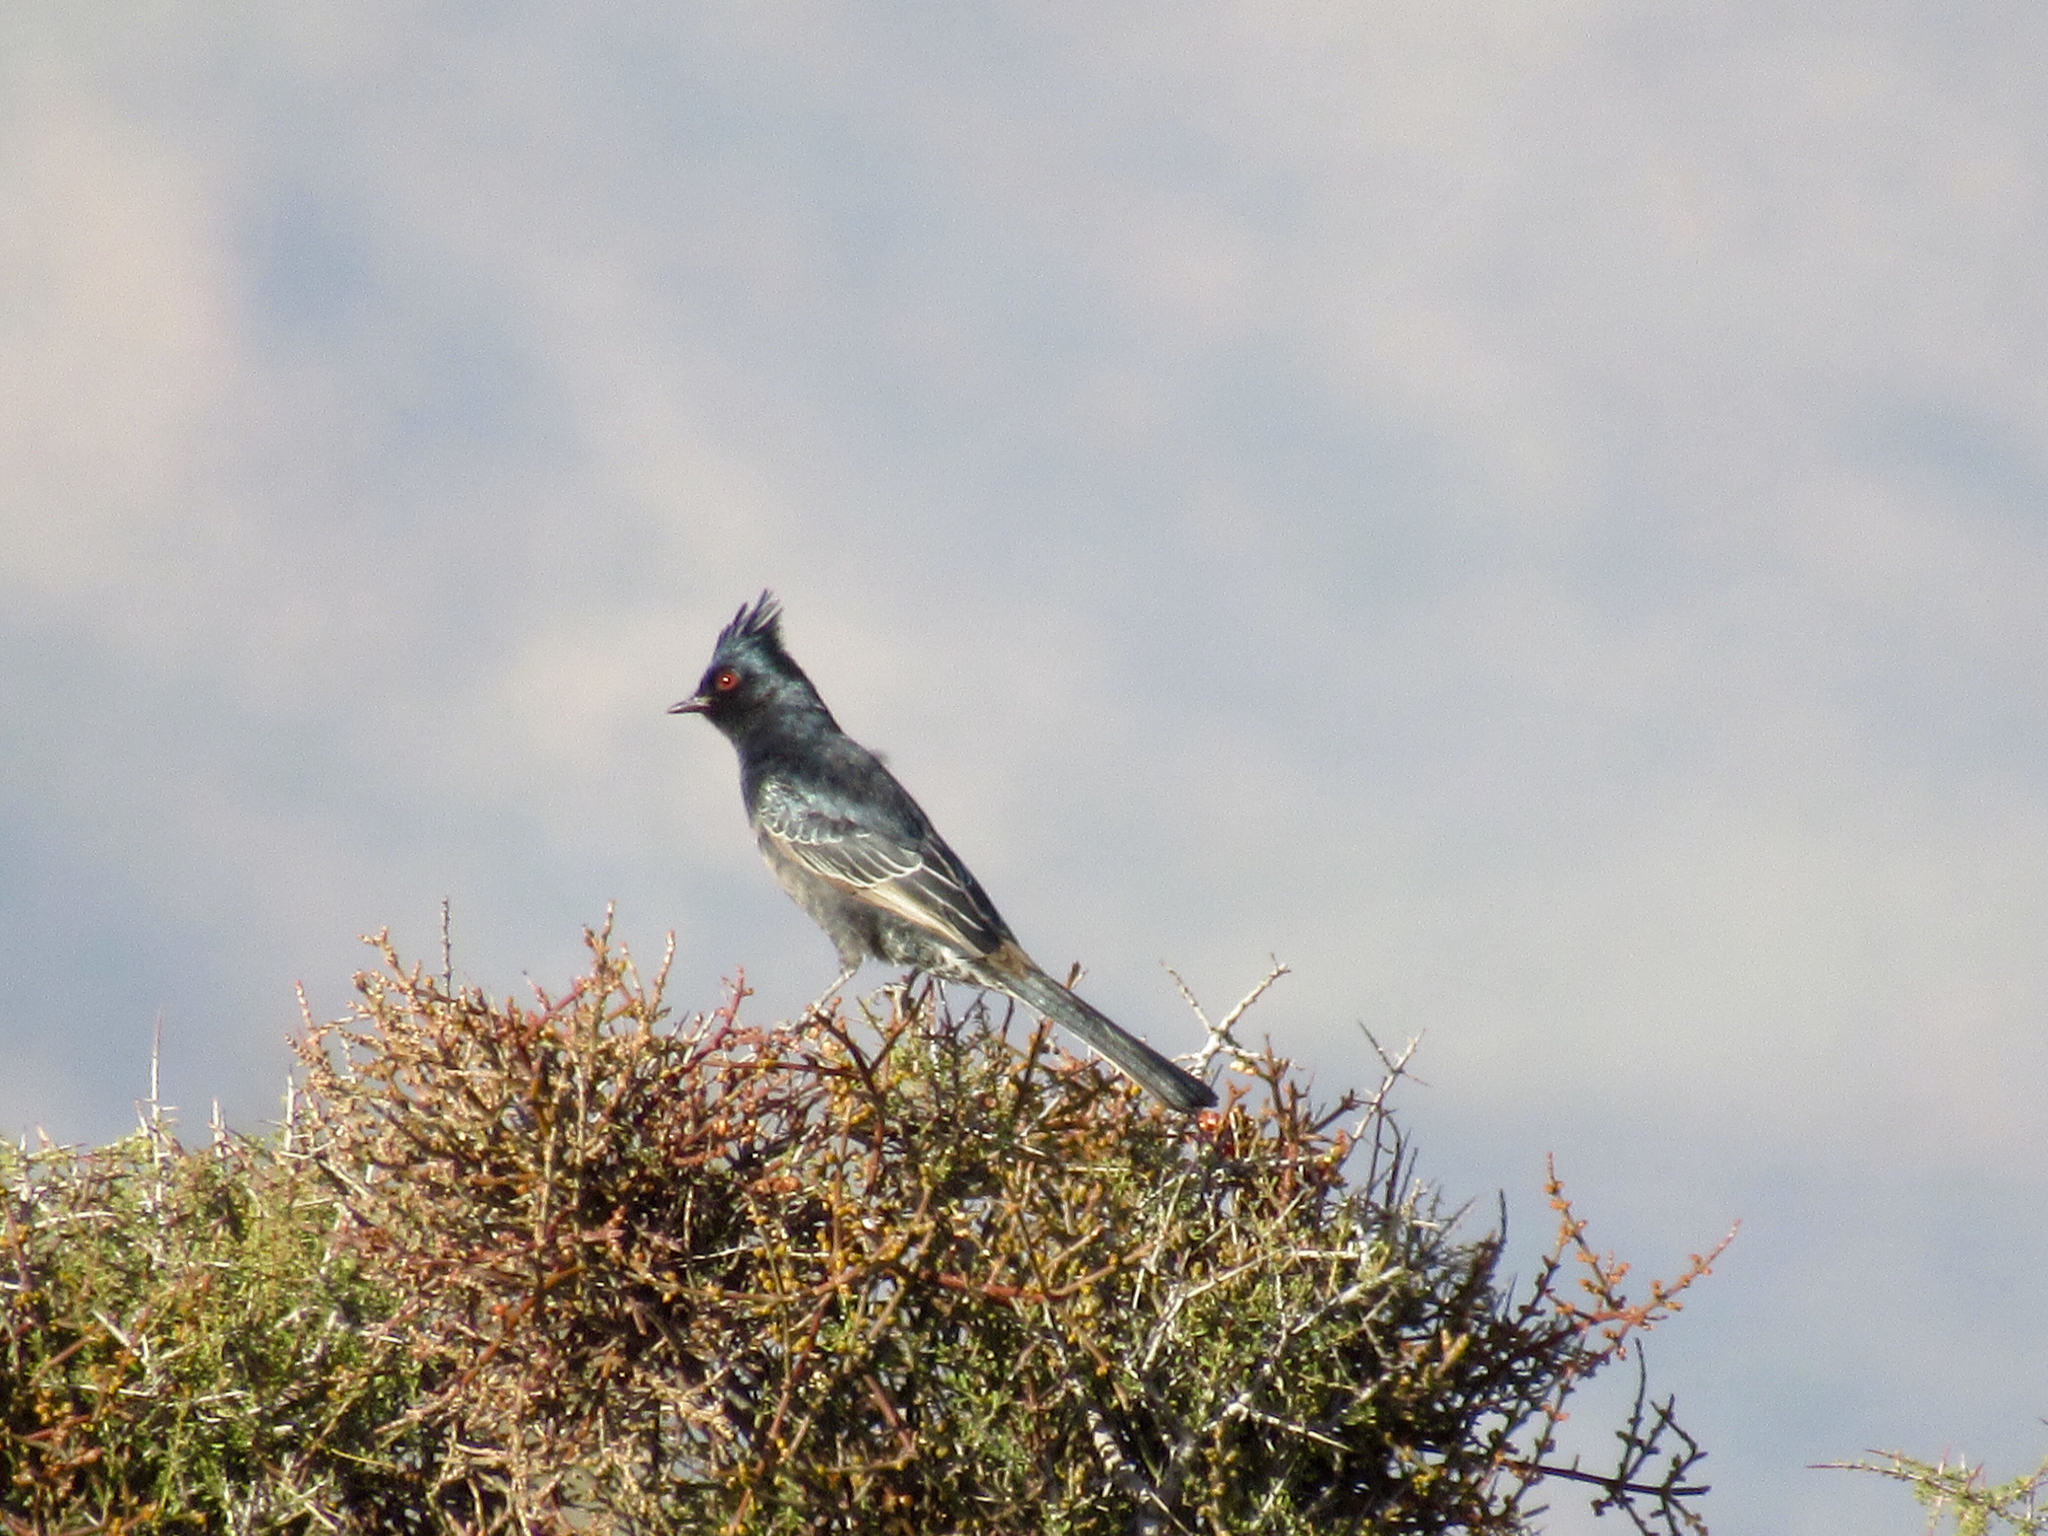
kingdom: Animalia
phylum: Chordata
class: Aves
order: Passeriformes
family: Ptilogonatidae
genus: Phainopepla
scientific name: Phainopepla nitens
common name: Phainopepla
